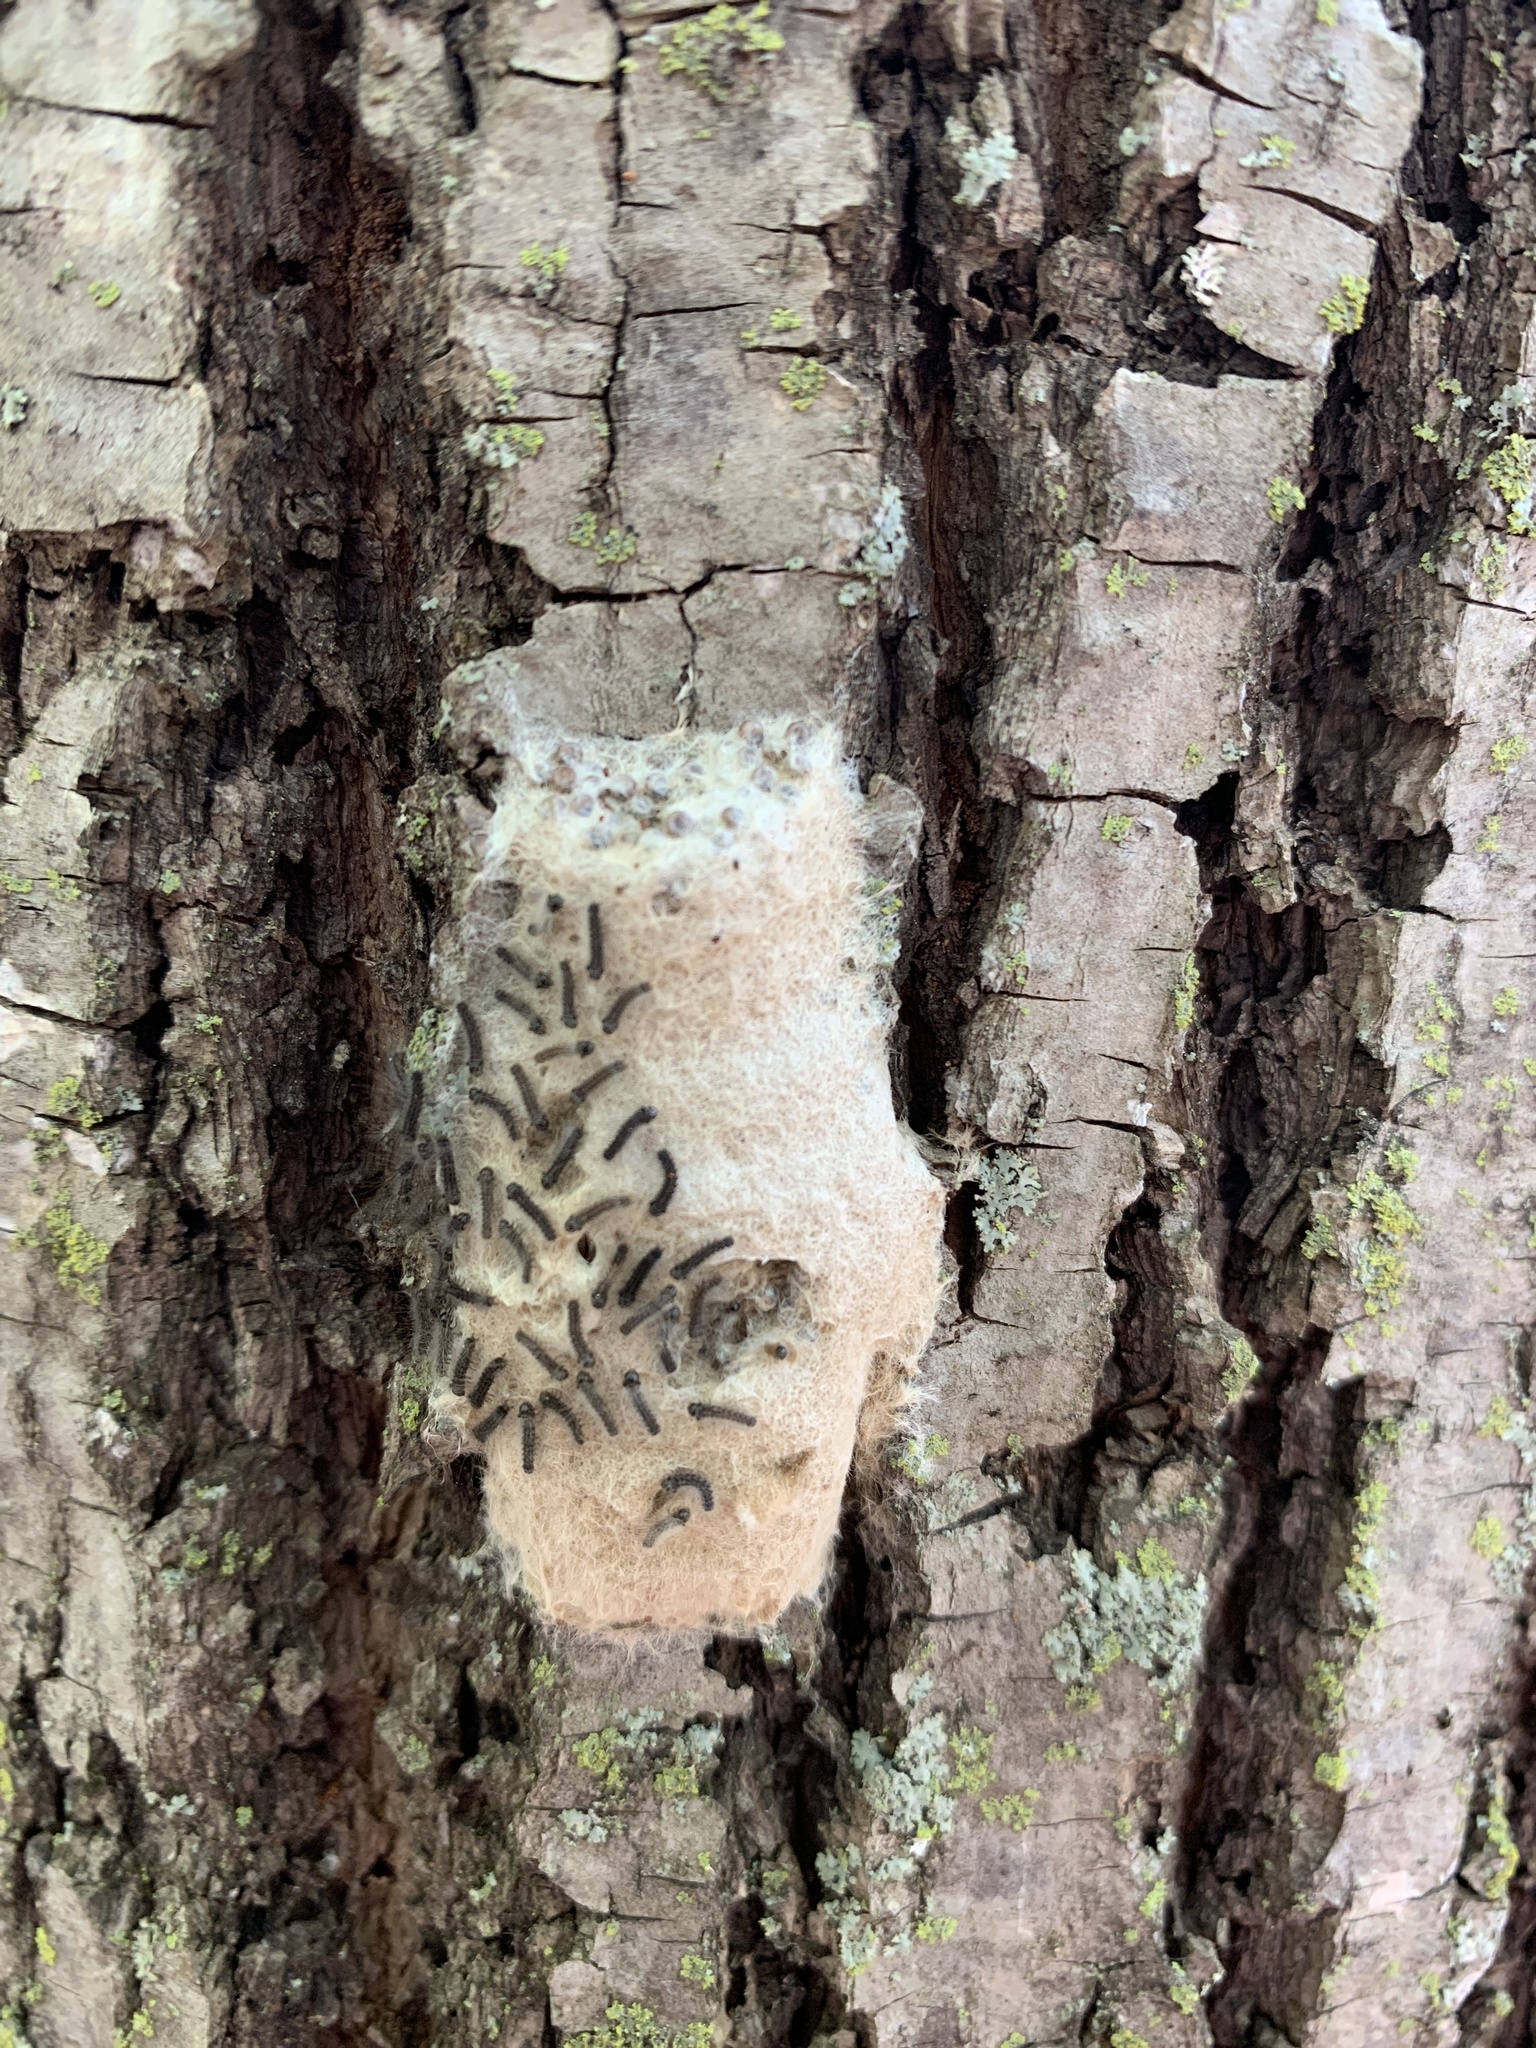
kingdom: Animalia
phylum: Arthropoda
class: Insecta
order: Lepidoptera
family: Erebidae
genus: Lymantria
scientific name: Lymantria dispar
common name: Gypsy moth
